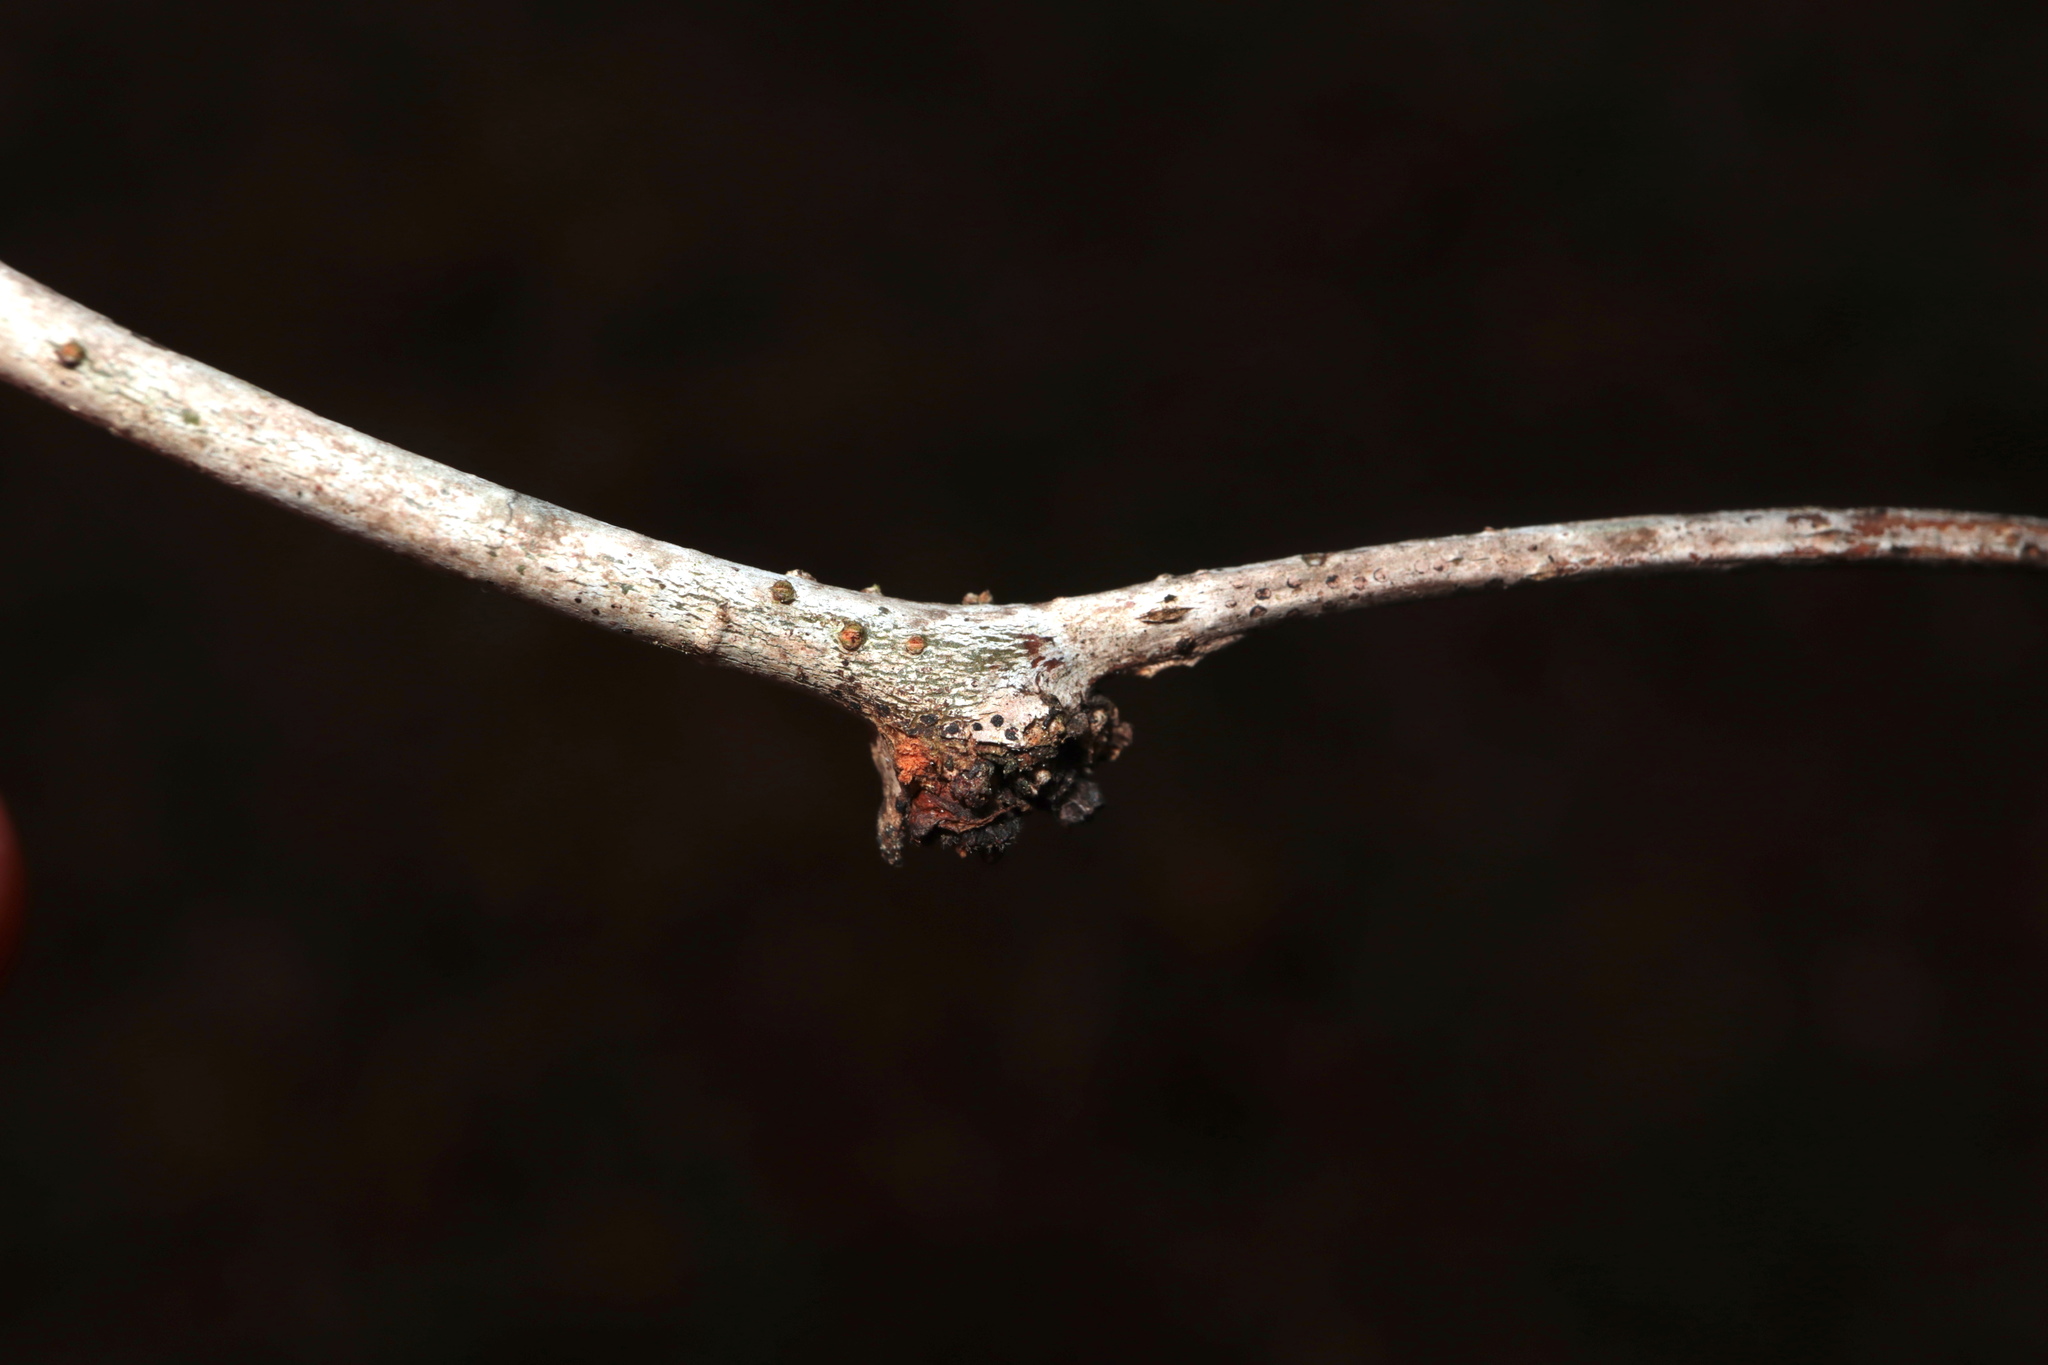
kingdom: Plantae
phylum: Tracheophyta
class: Magnoliopsida
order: Fabales
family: Fabaceae
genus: Gleditsia
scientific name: Gleditsia triacanthos
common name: Common honeylocust
